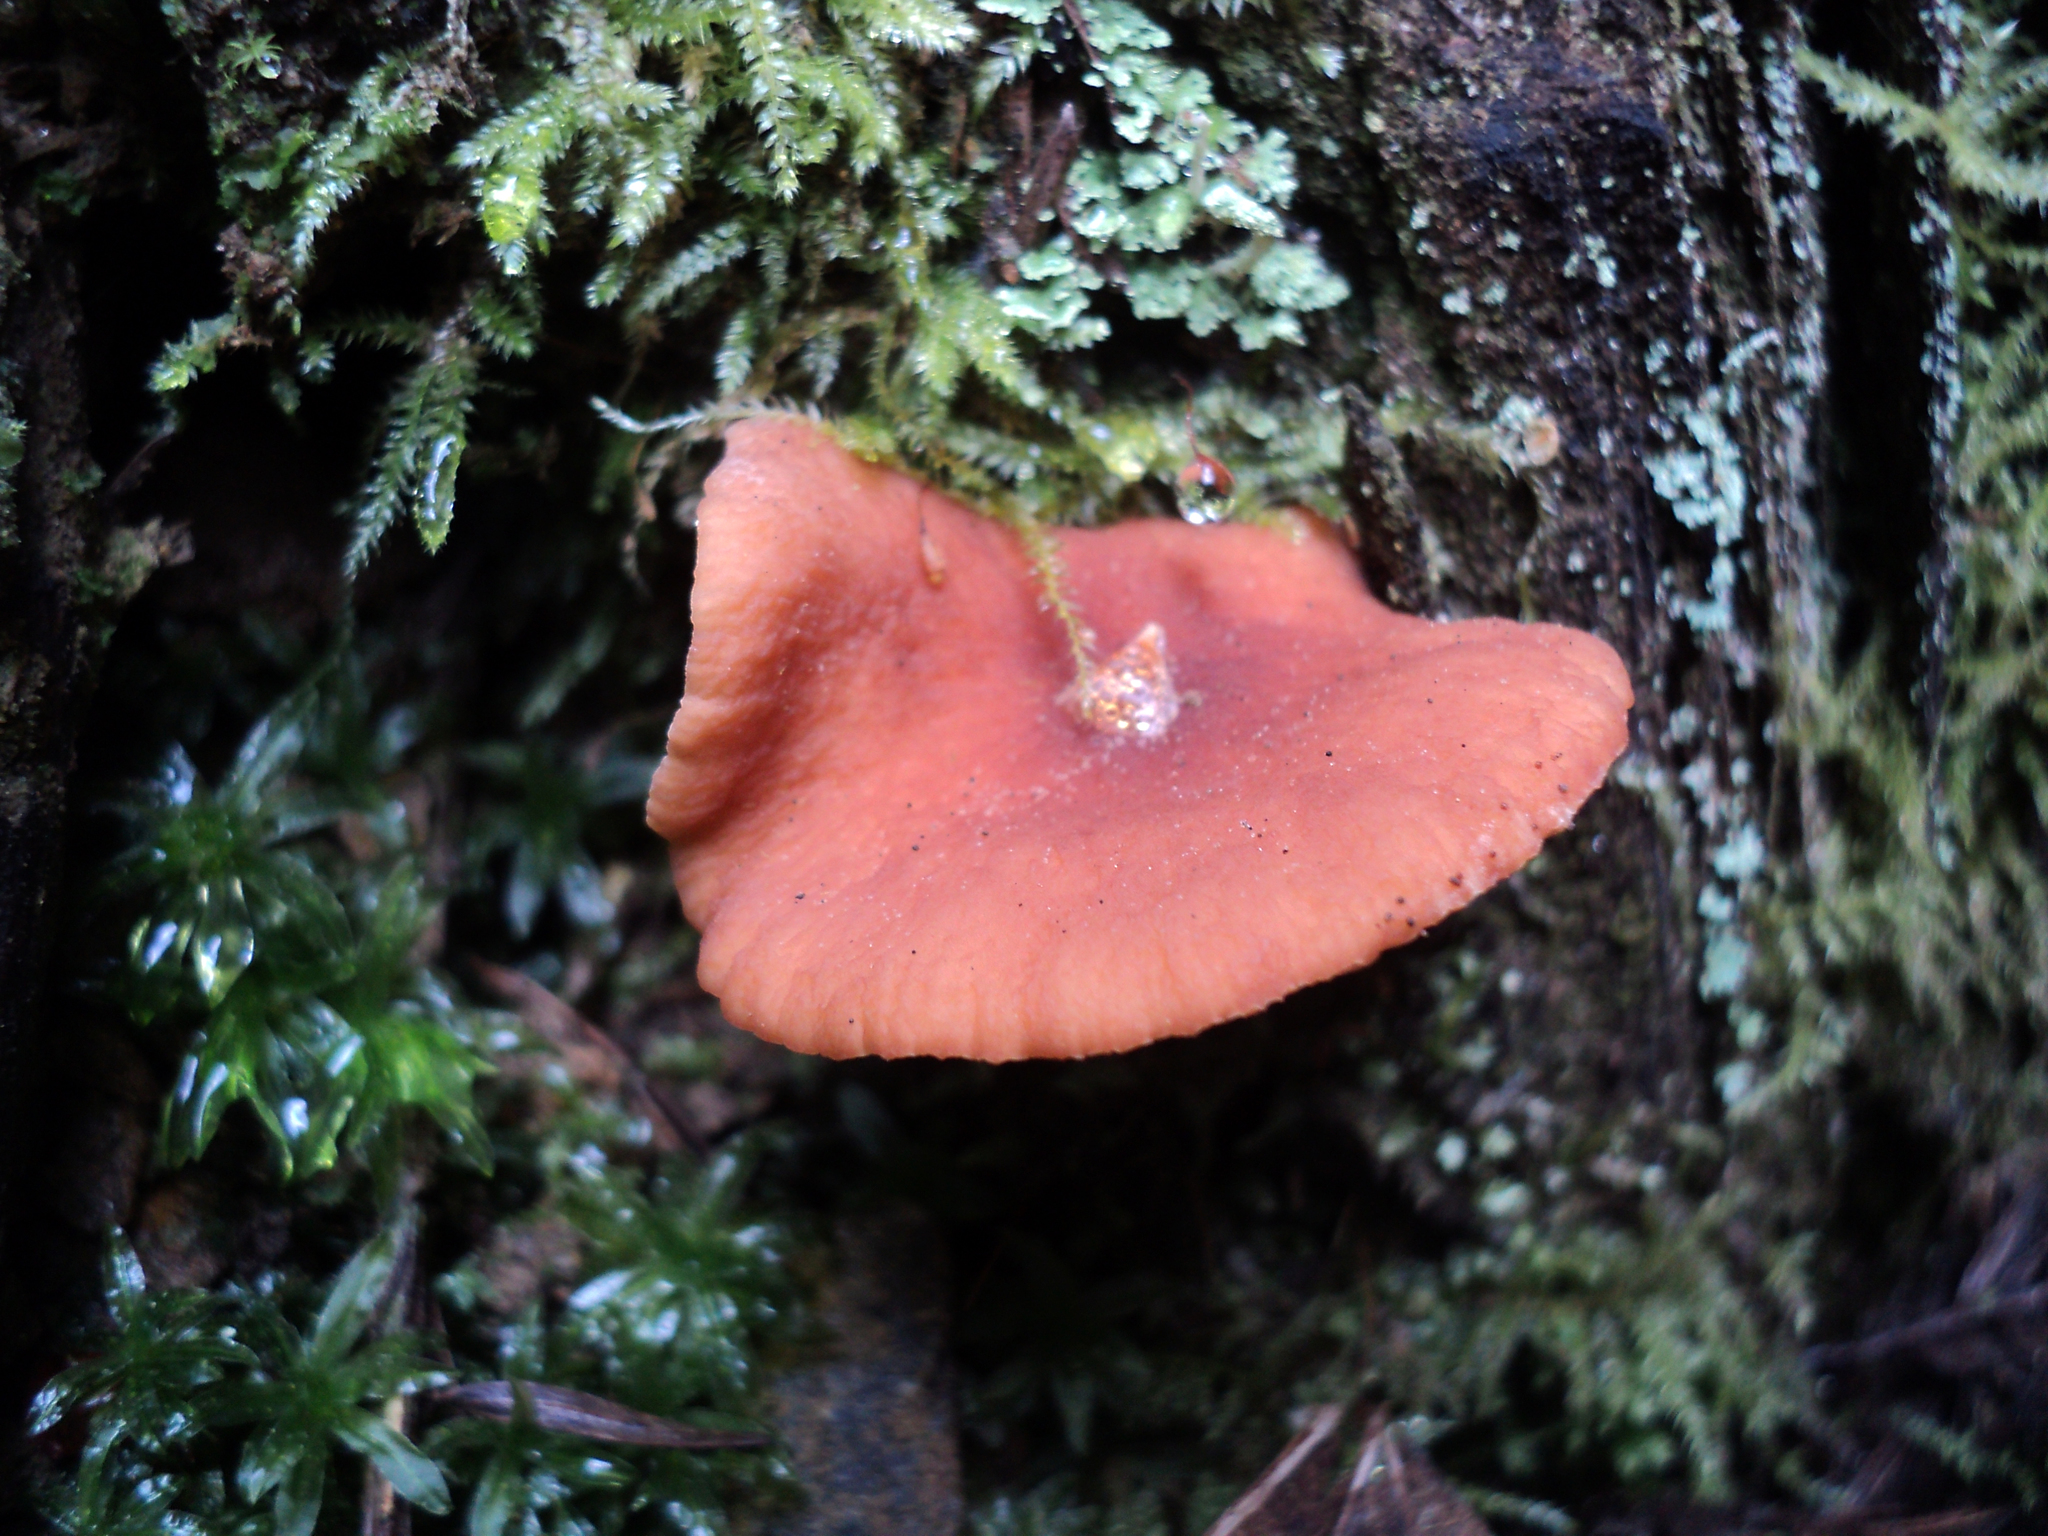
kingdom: Fungi
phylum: Basidiomycota
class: Agaricomycetes
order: Russulales
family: Russulaceae
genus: Lactarius
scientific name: Lactarius rubidus
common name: Candy cap
